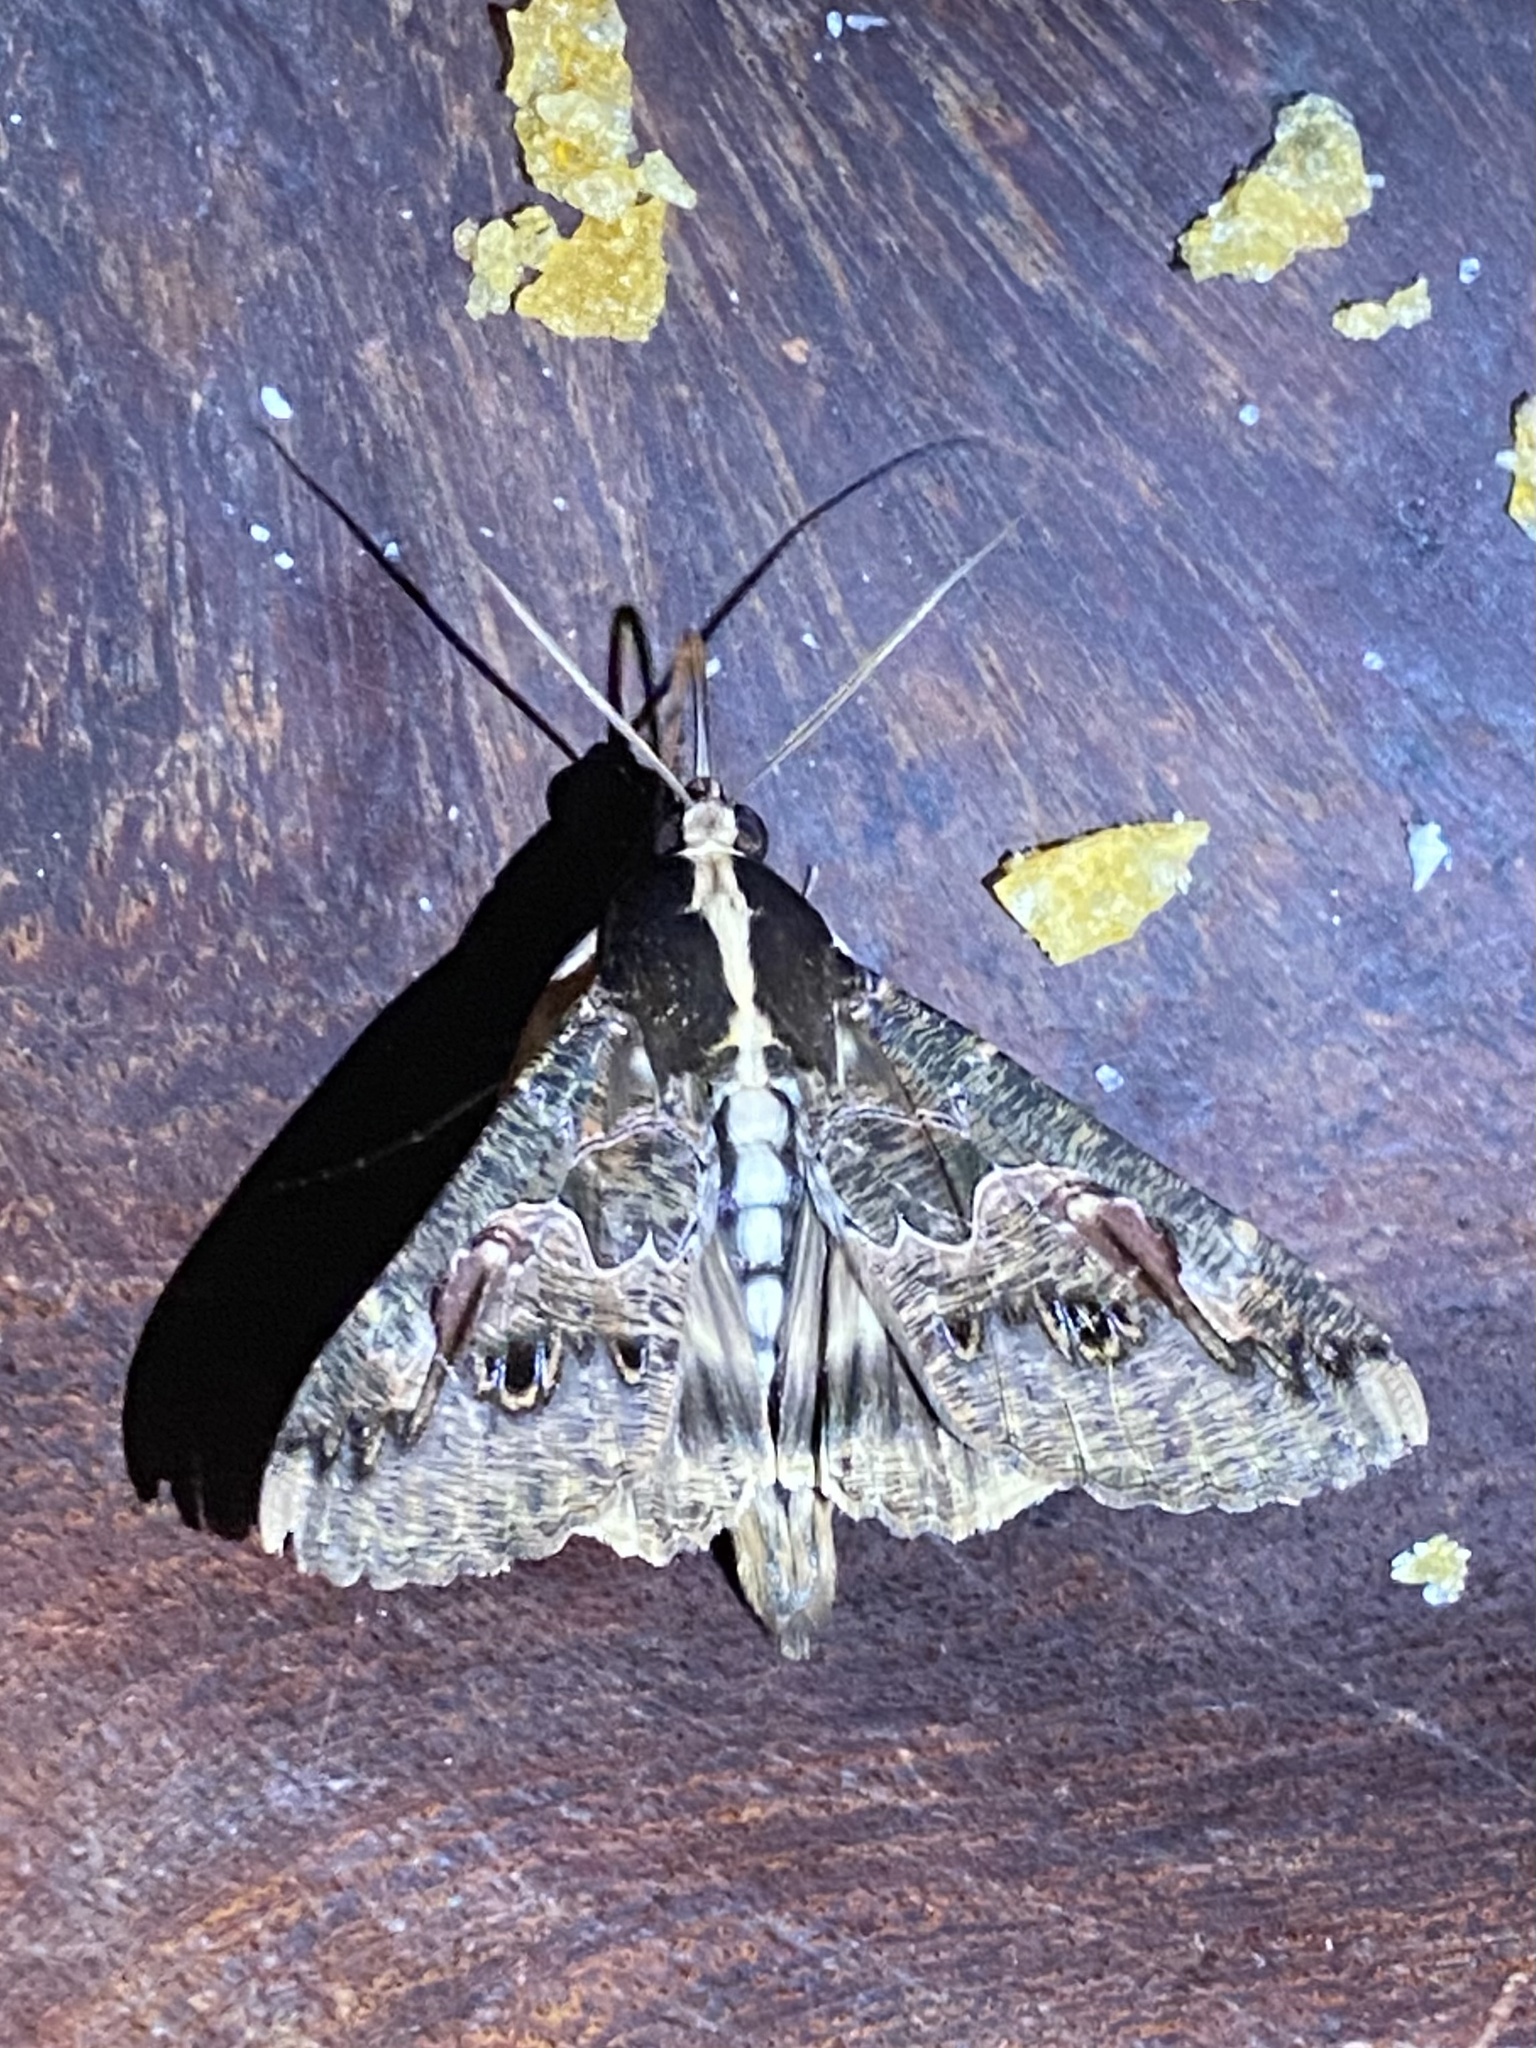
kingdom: Animalia
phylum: Arthropoda
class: Insecta
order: Lepidoptera
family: Erebidae
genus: Sphingomorpha
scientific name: Sphingomorpha chlorea
